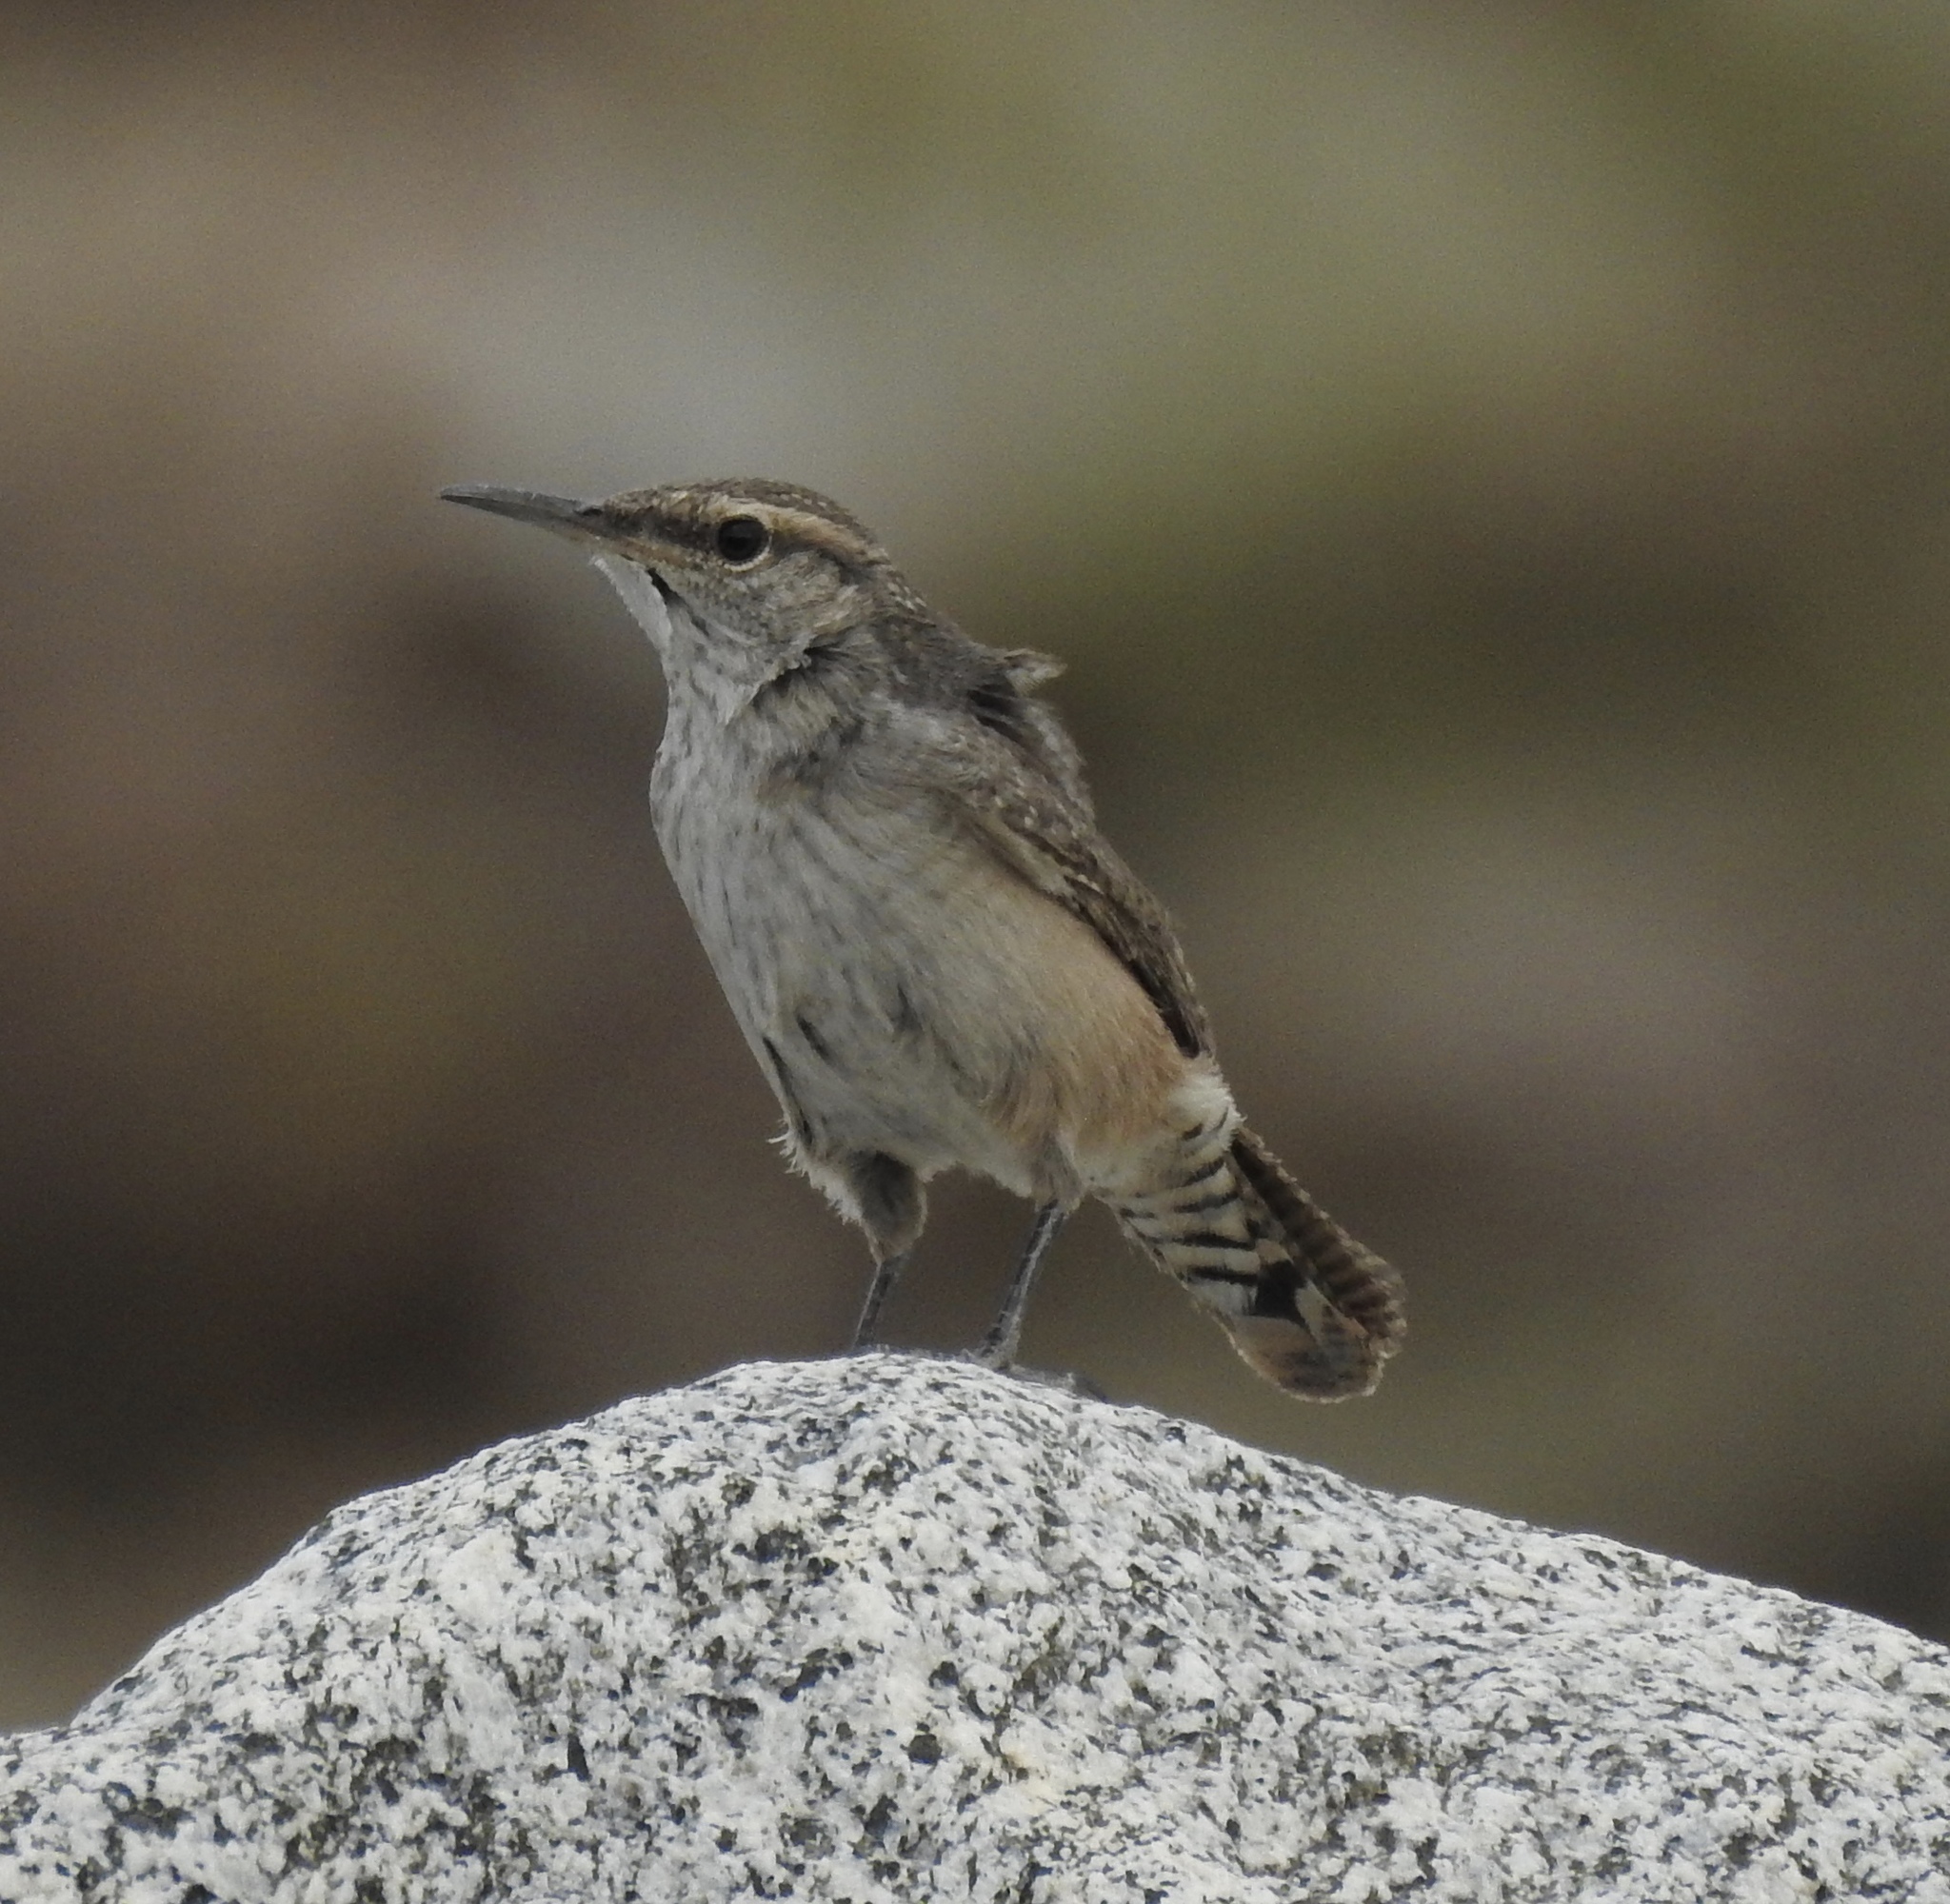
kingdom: Animalia
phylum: Chordata
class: Aves
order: Passeriformes
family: Troglodytidae
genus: Salpinctes
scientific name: Salpinctes obsoletus
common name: Rock wren
